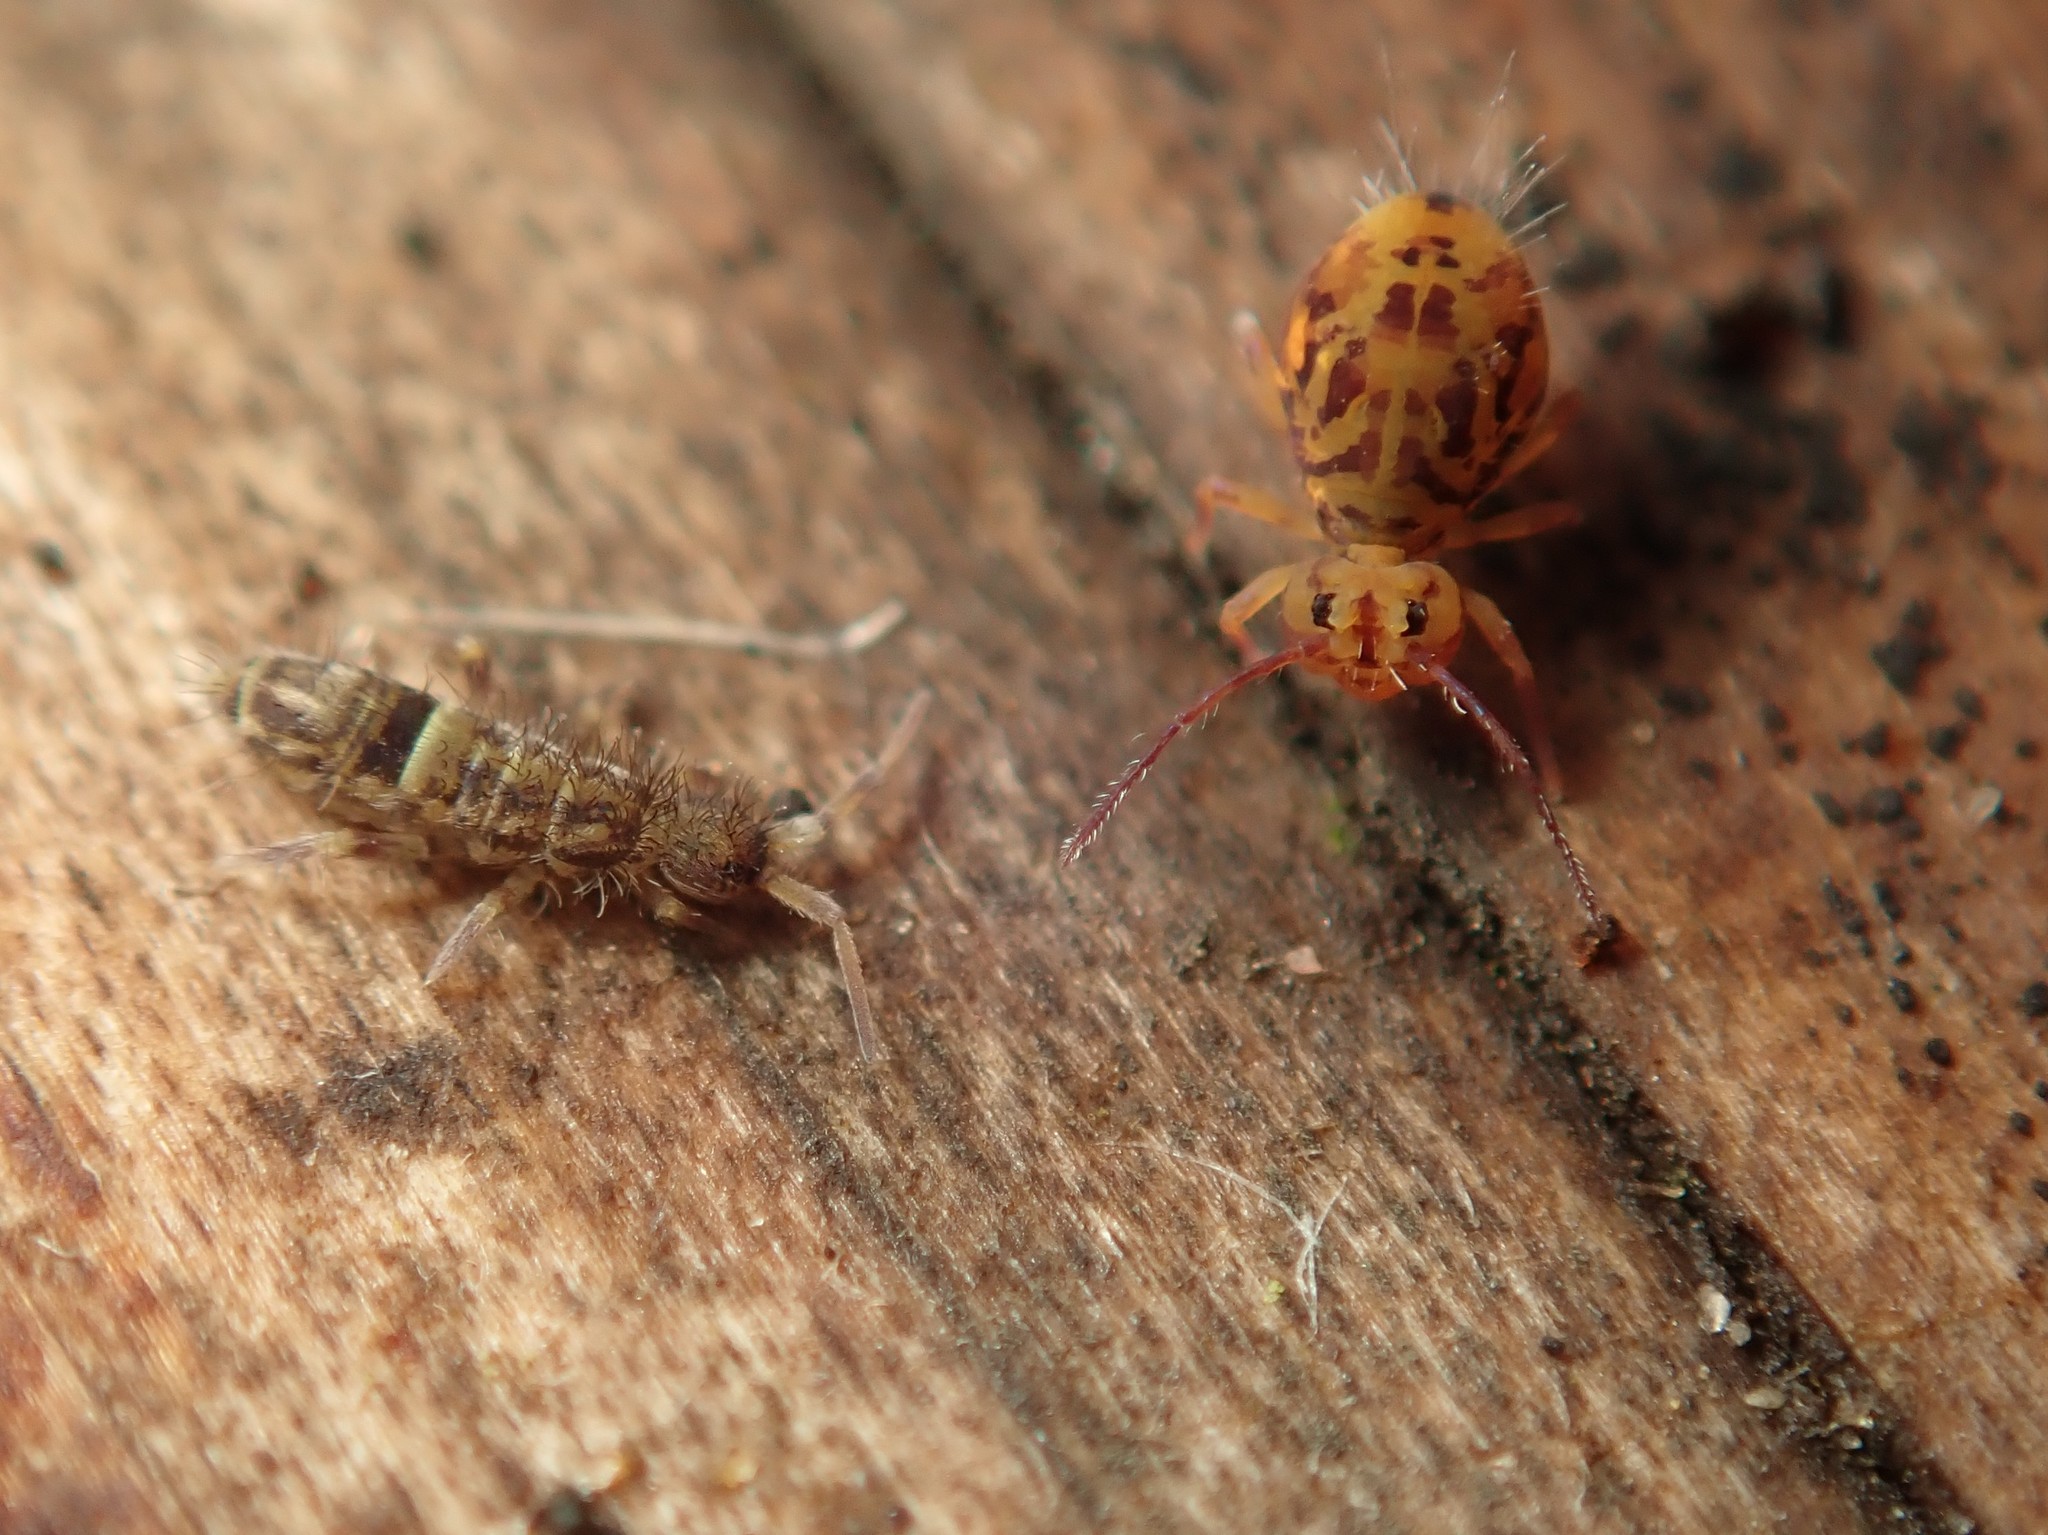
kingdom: Animalia
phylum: Arthropoda
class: Collembola
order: Entomobryomorpha
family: Orchesellidae
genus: Orchesella
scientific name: Orchesella cincta
